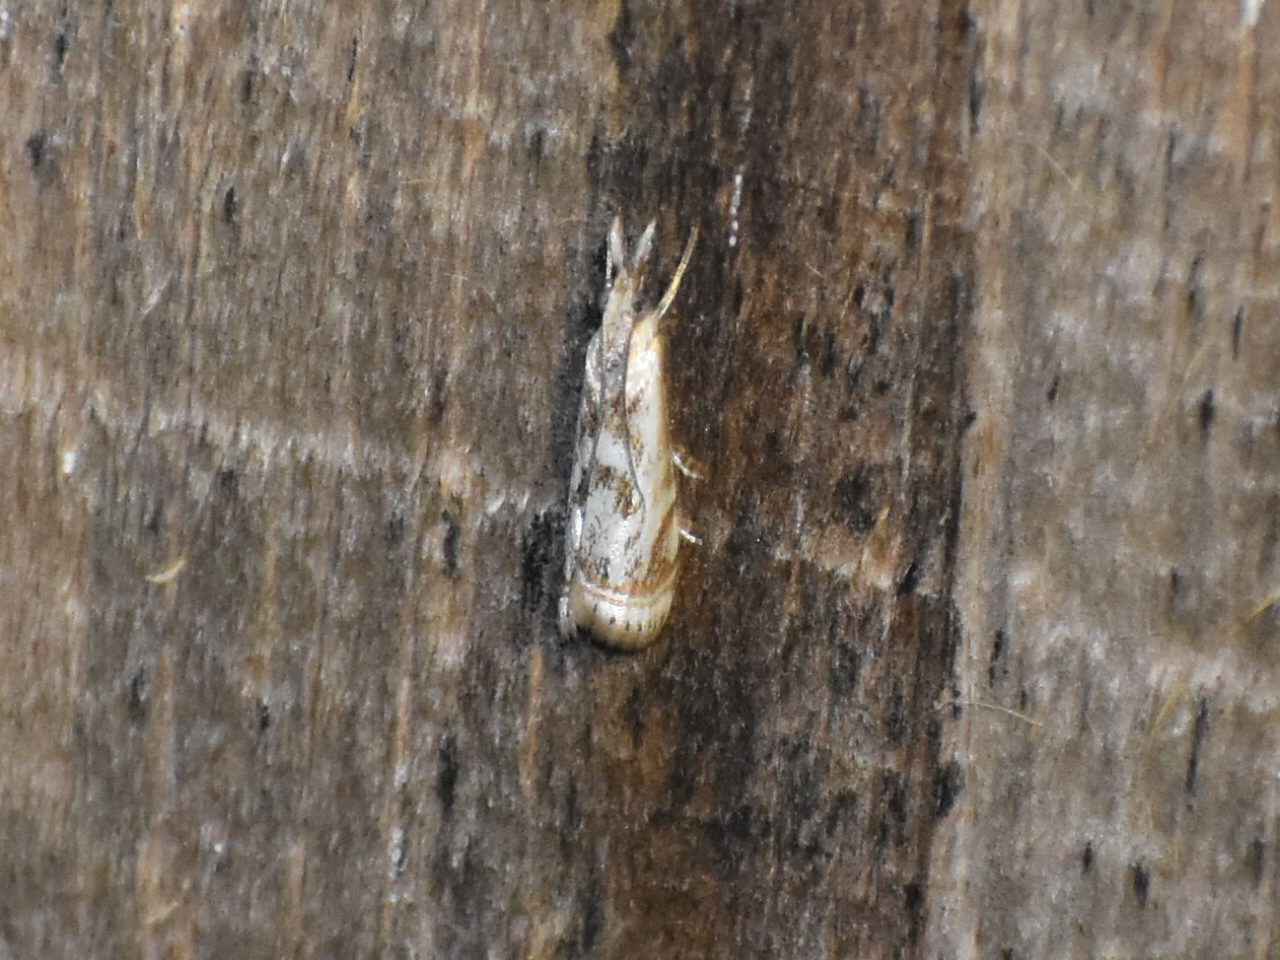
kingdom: Animalia
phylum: Arthropoda
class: Insecta
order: Lepidoptera
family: Crambidae
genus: Microcrambus
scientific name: Microcrambus elegans
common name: Elegant grass-veneer
